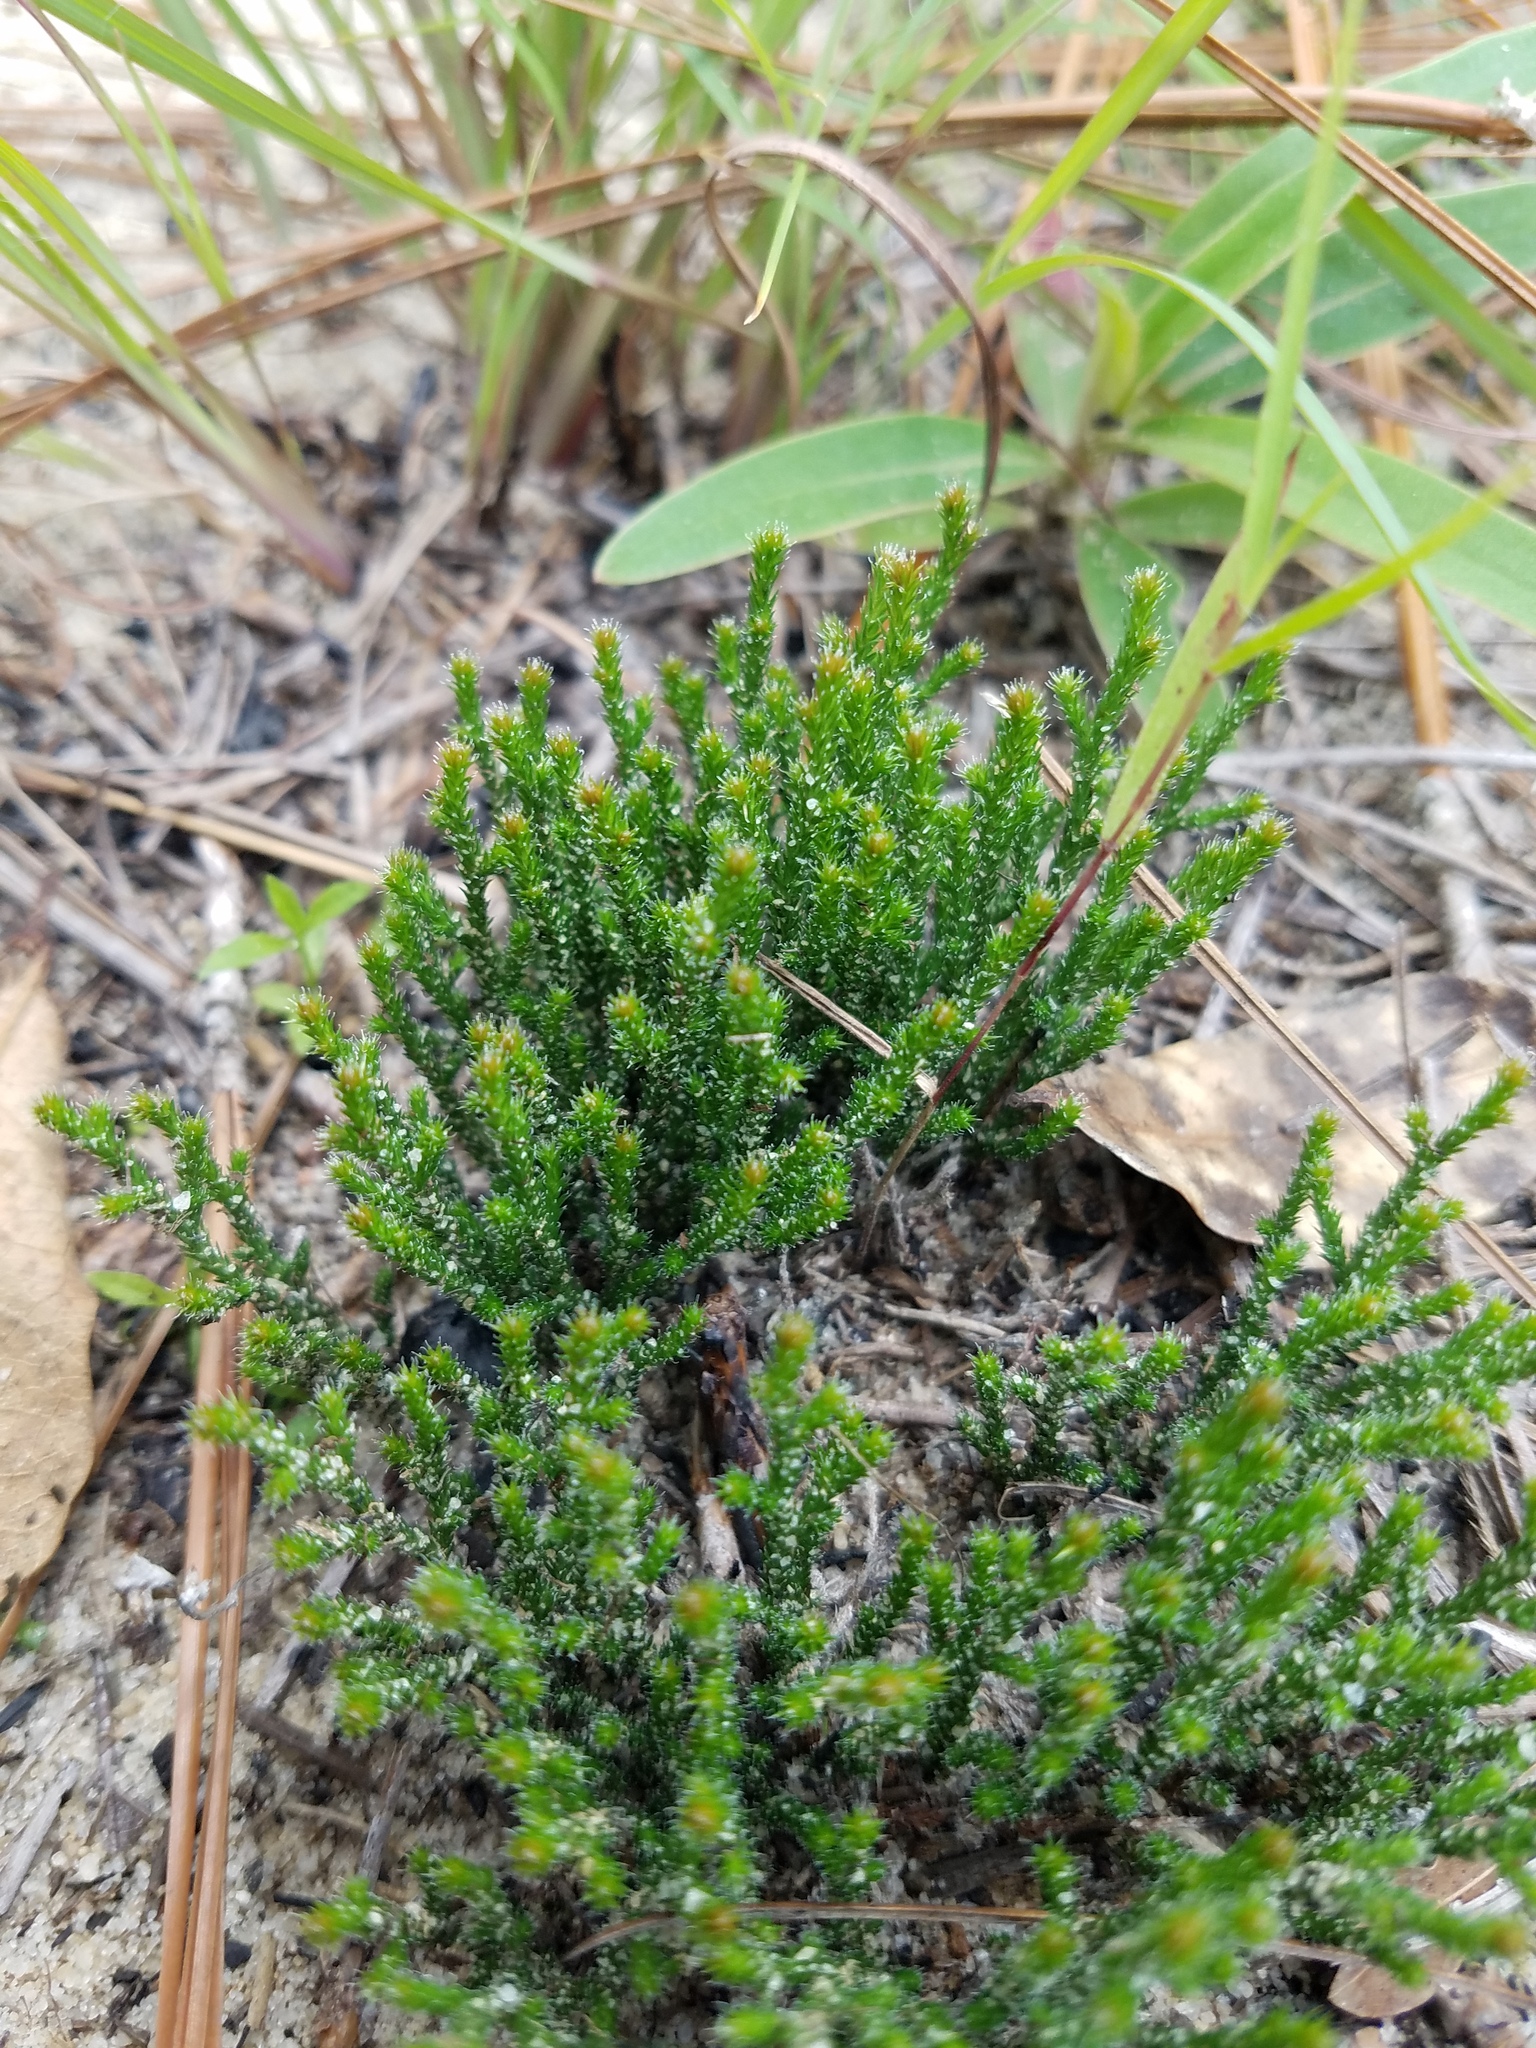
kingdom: Plantae
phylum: Tracheophyta
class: Lycopodiopsida
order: Selaginellales
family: Selaginellaceae
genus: Selaginella
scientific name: Selaginella arenicola
